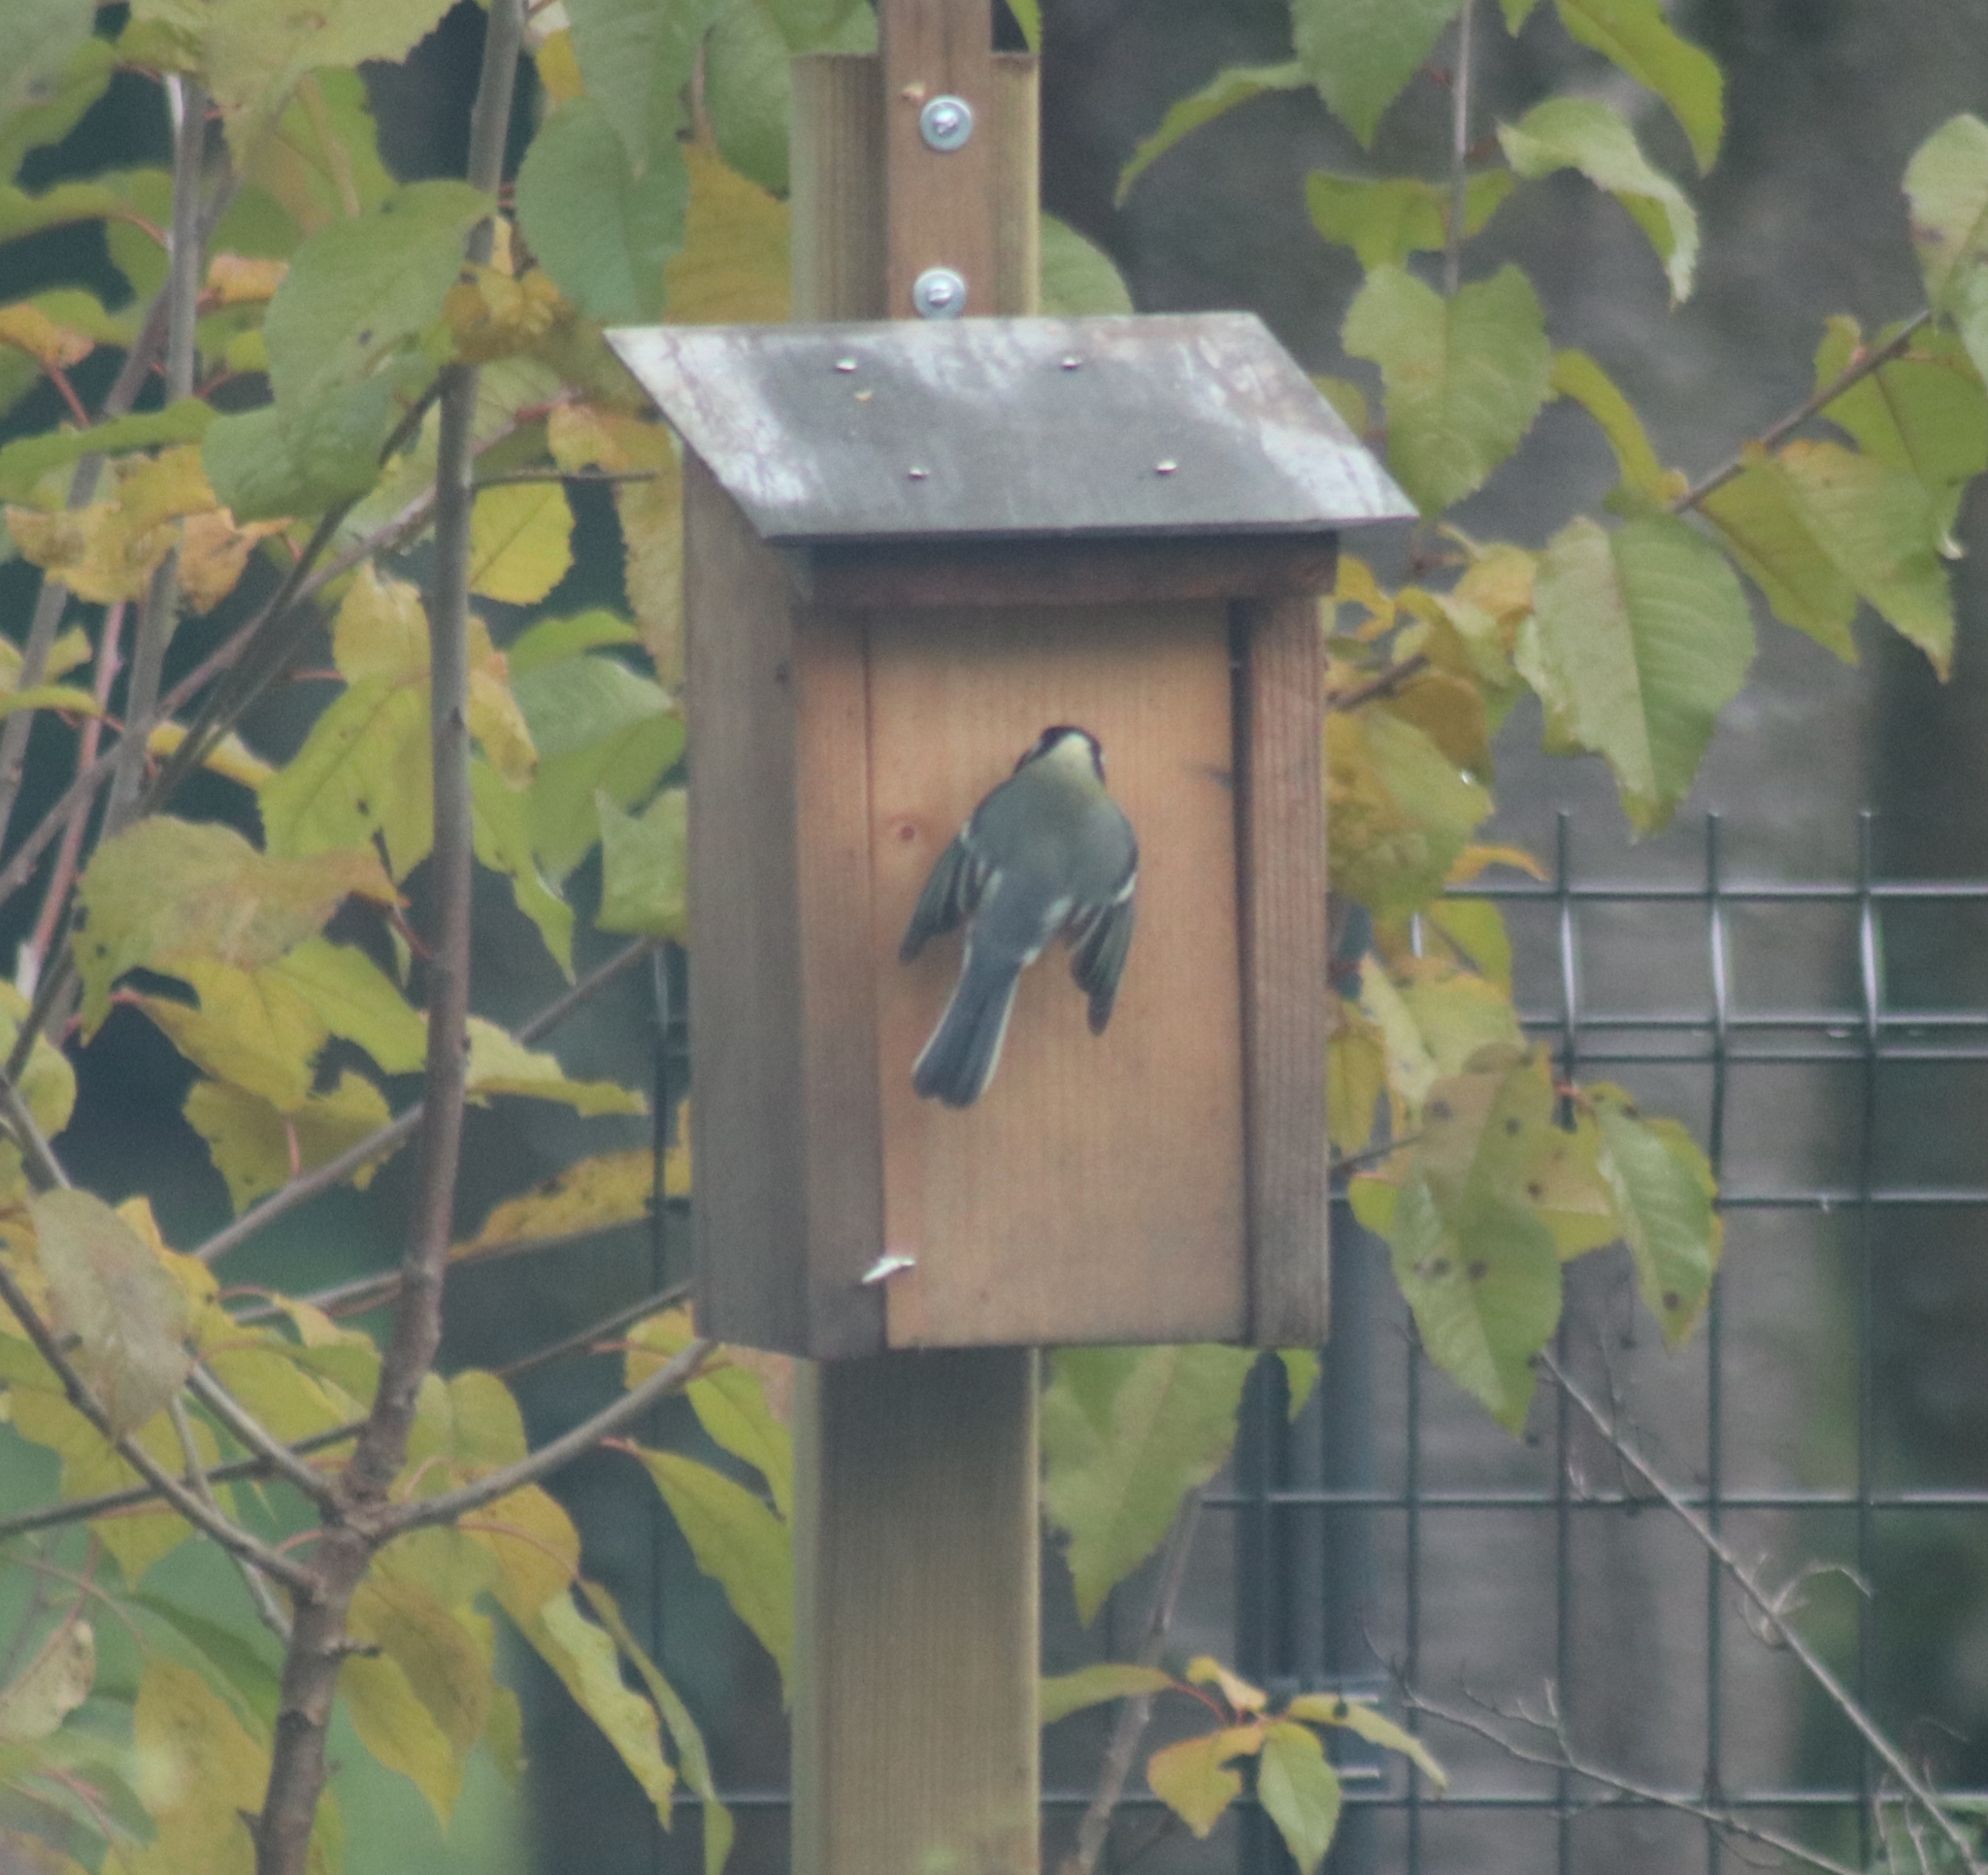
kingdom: Animalia
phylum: Chordata
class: Aves
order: Passeriformes
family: Paridae
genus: Parus
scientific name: Parus major
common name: Great tit
